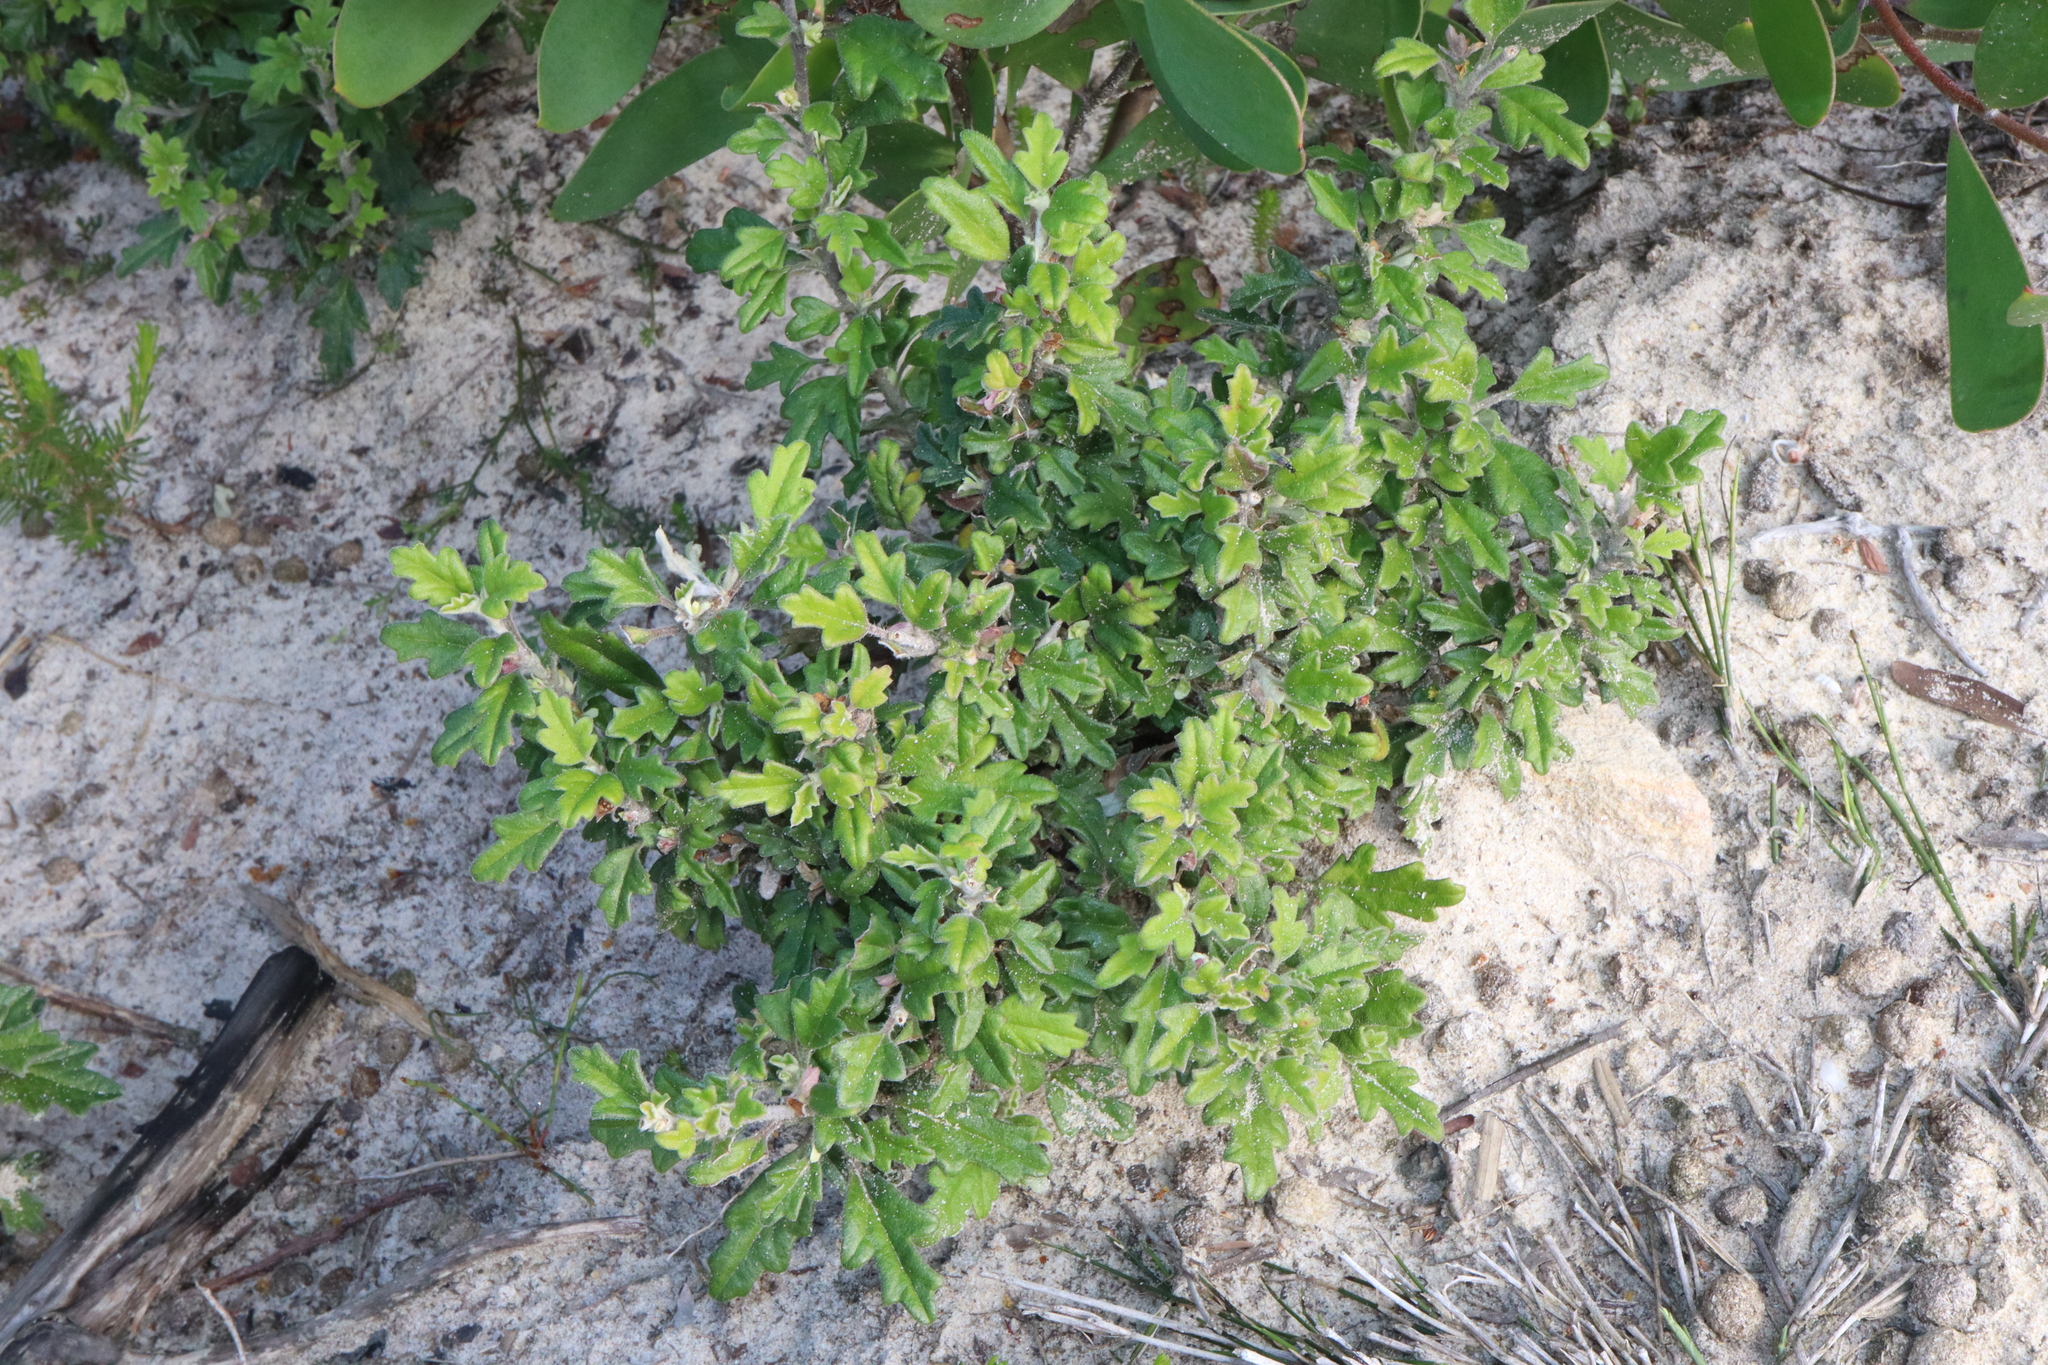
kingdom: Plantae
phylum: Tracheophyta
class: Magnoliopsida
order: Apiales
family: Apiaceae
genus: Xanthosia
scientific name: Xanthosia pilosa
